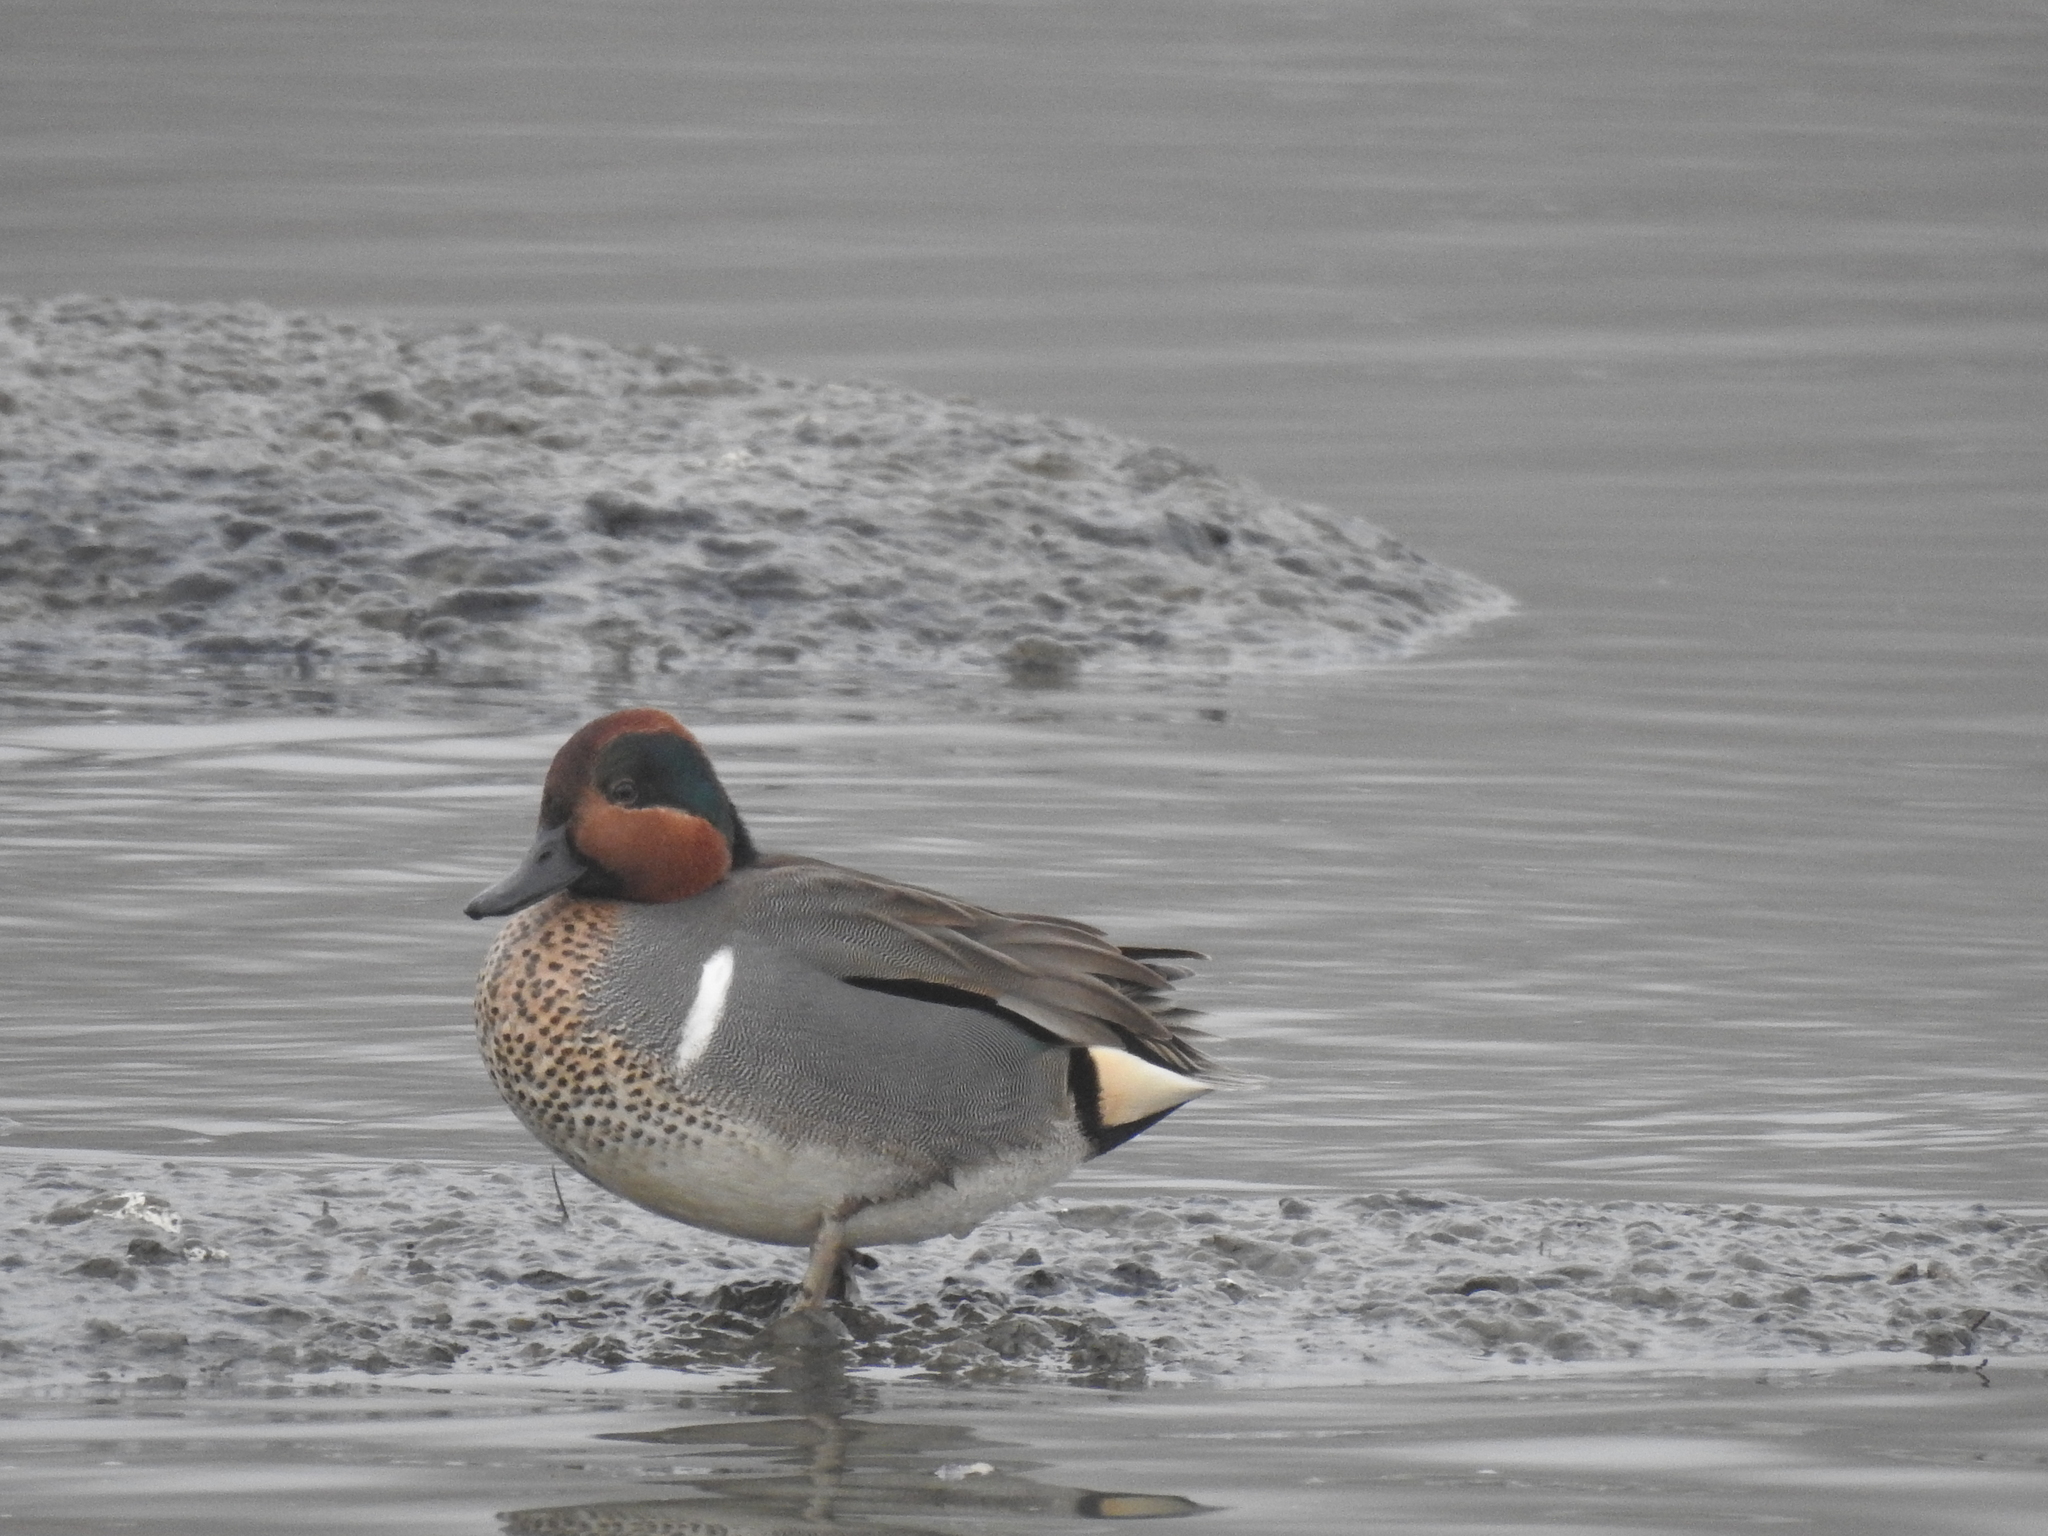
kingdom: Animalia
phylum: Chordata
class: Aves
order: Anseriformes
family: Anatidae
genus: Anas
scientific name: Anas crecca
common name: Eurasian teal
